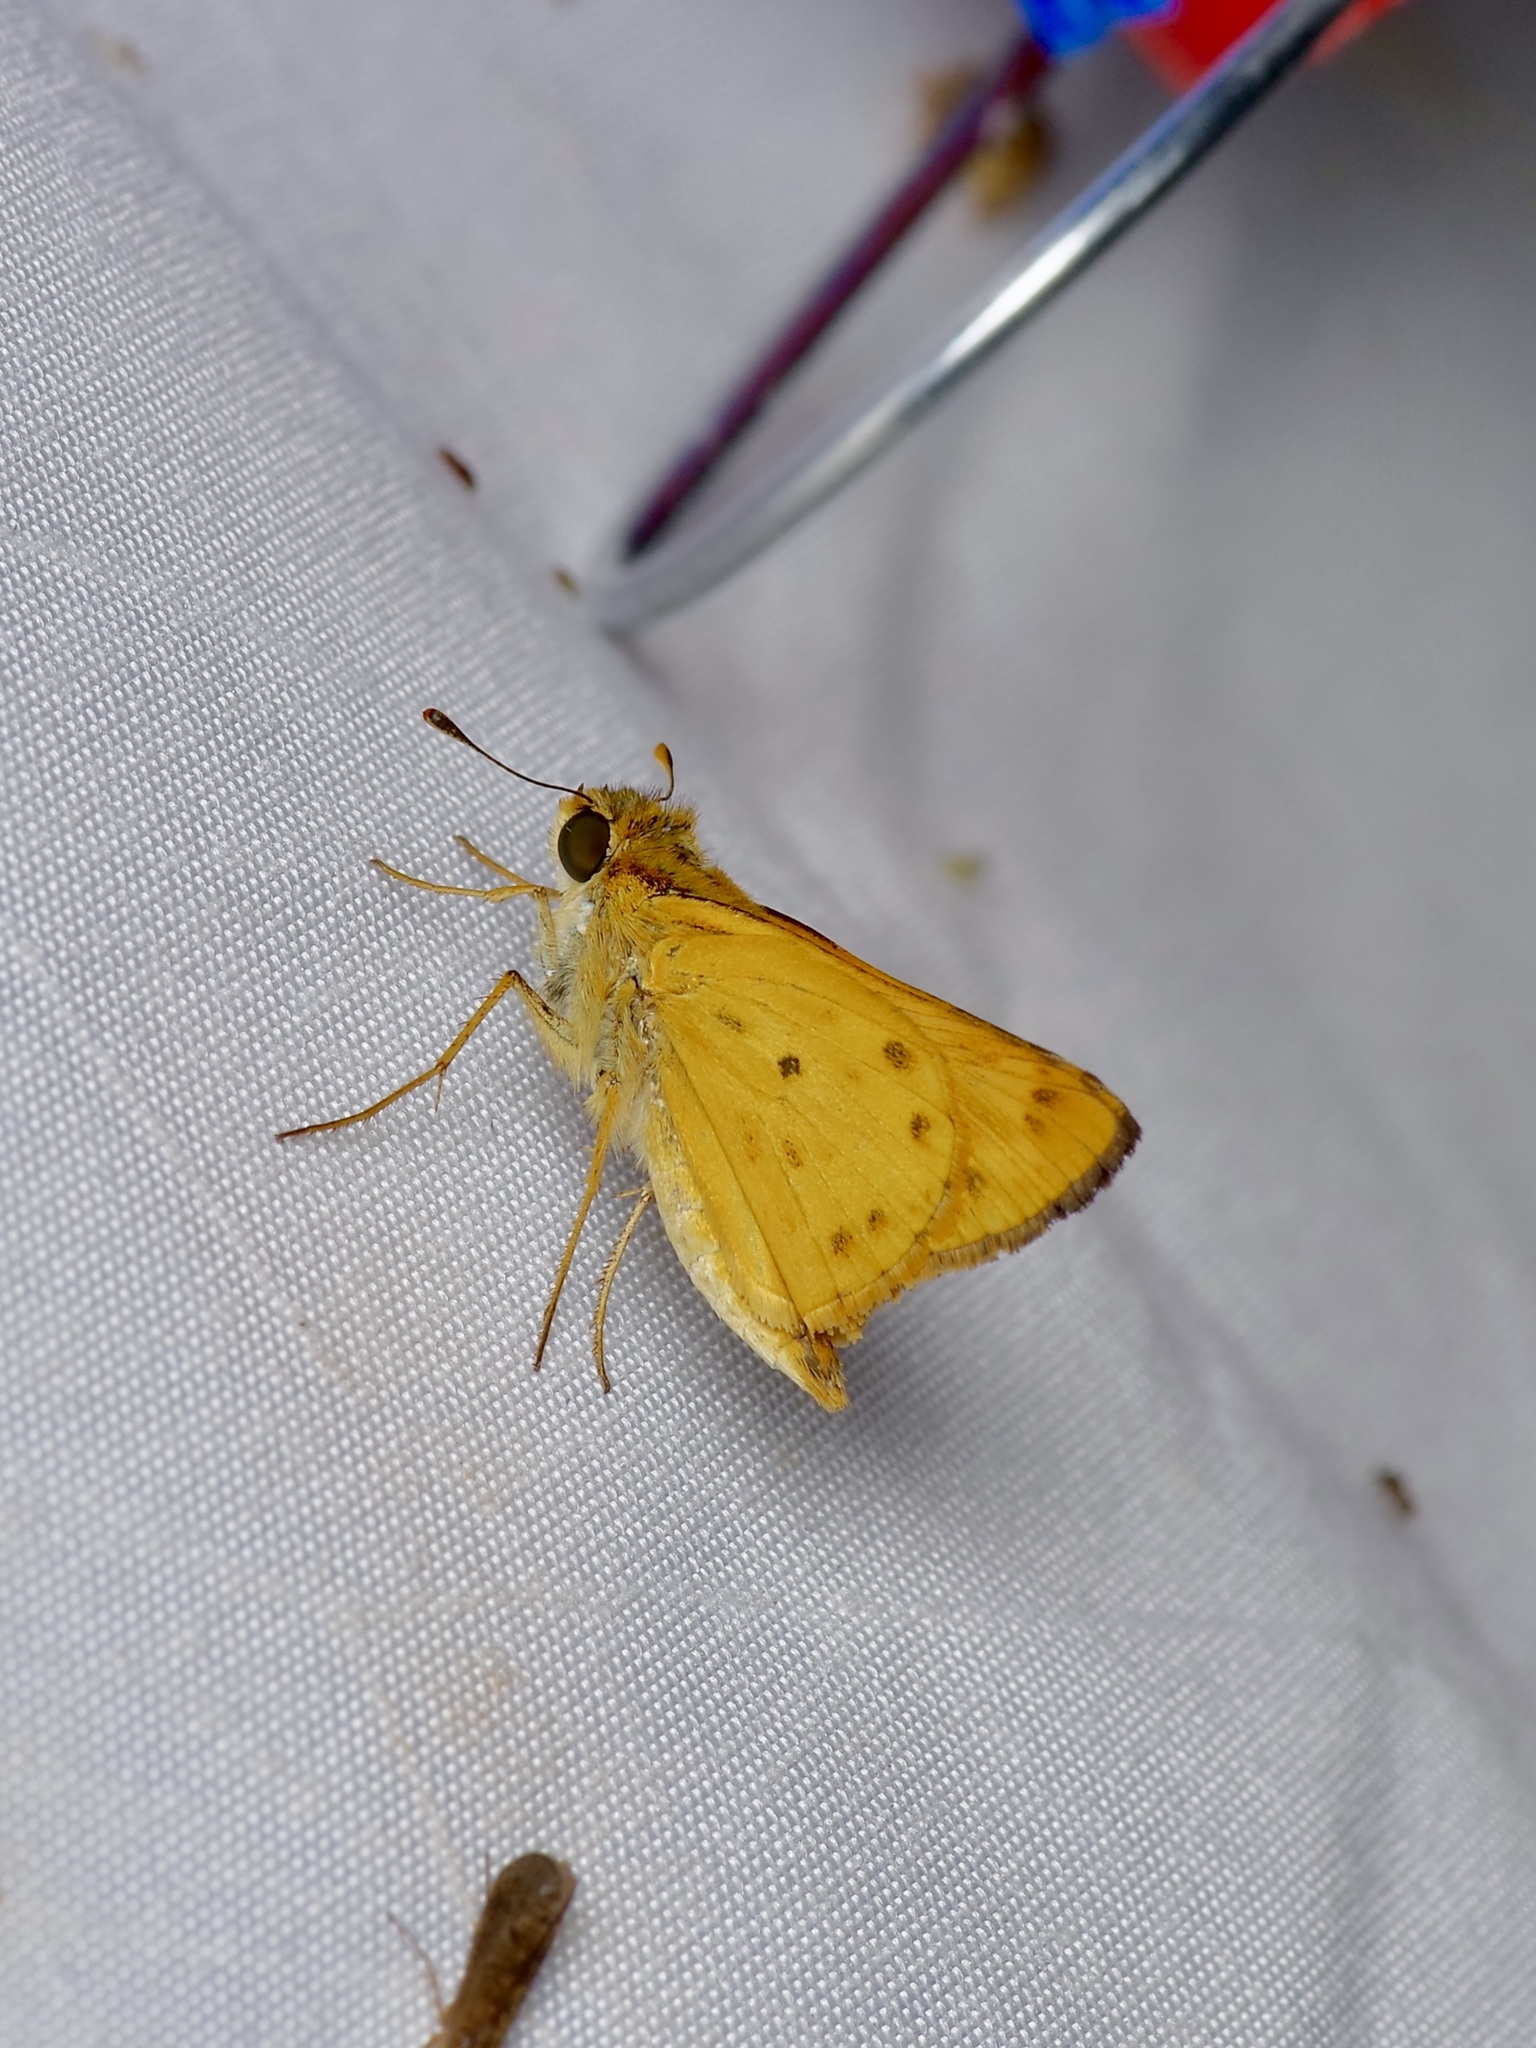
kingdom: Animalia
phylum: Arthropoda
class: Insecta
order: Lepidoptera
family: Hesperiidae
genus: Hylephila
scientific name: Hylephila phyleus
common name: Fiery skipper
